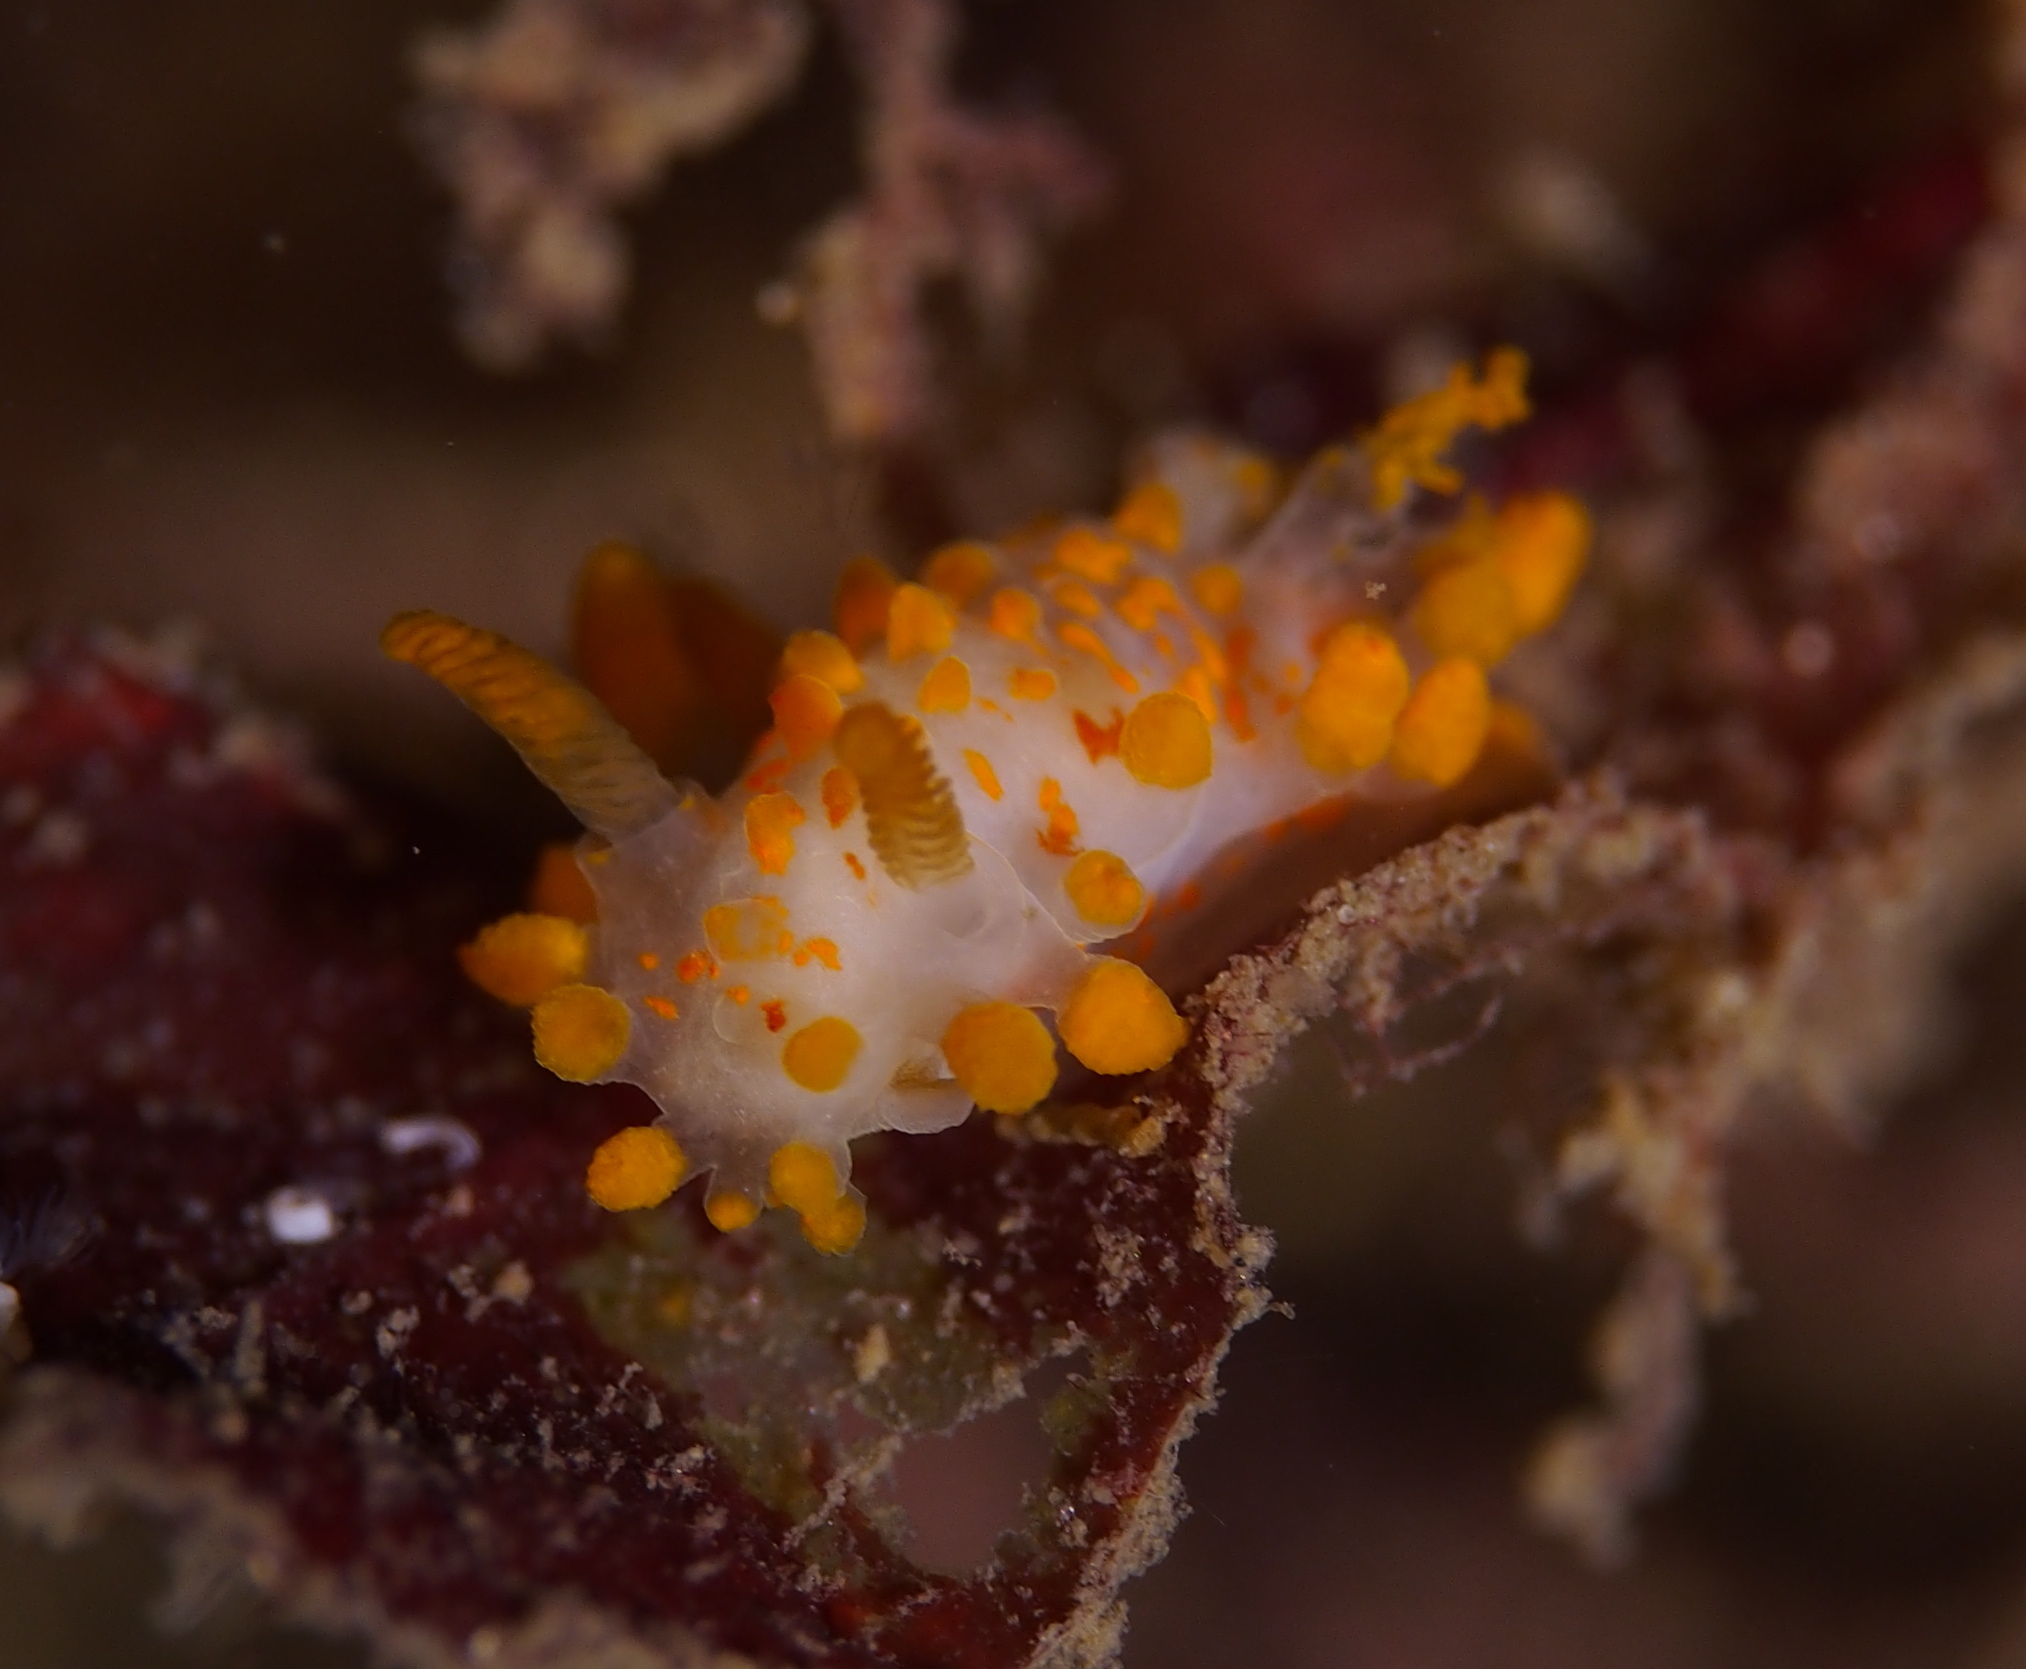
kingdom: Animalia
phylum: Mollusca
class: Gastropoda
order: Nudibranchia
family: Polyceridae
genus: Limacia
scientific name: Limacia clavigera
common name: Orange-clubbed sea slug
